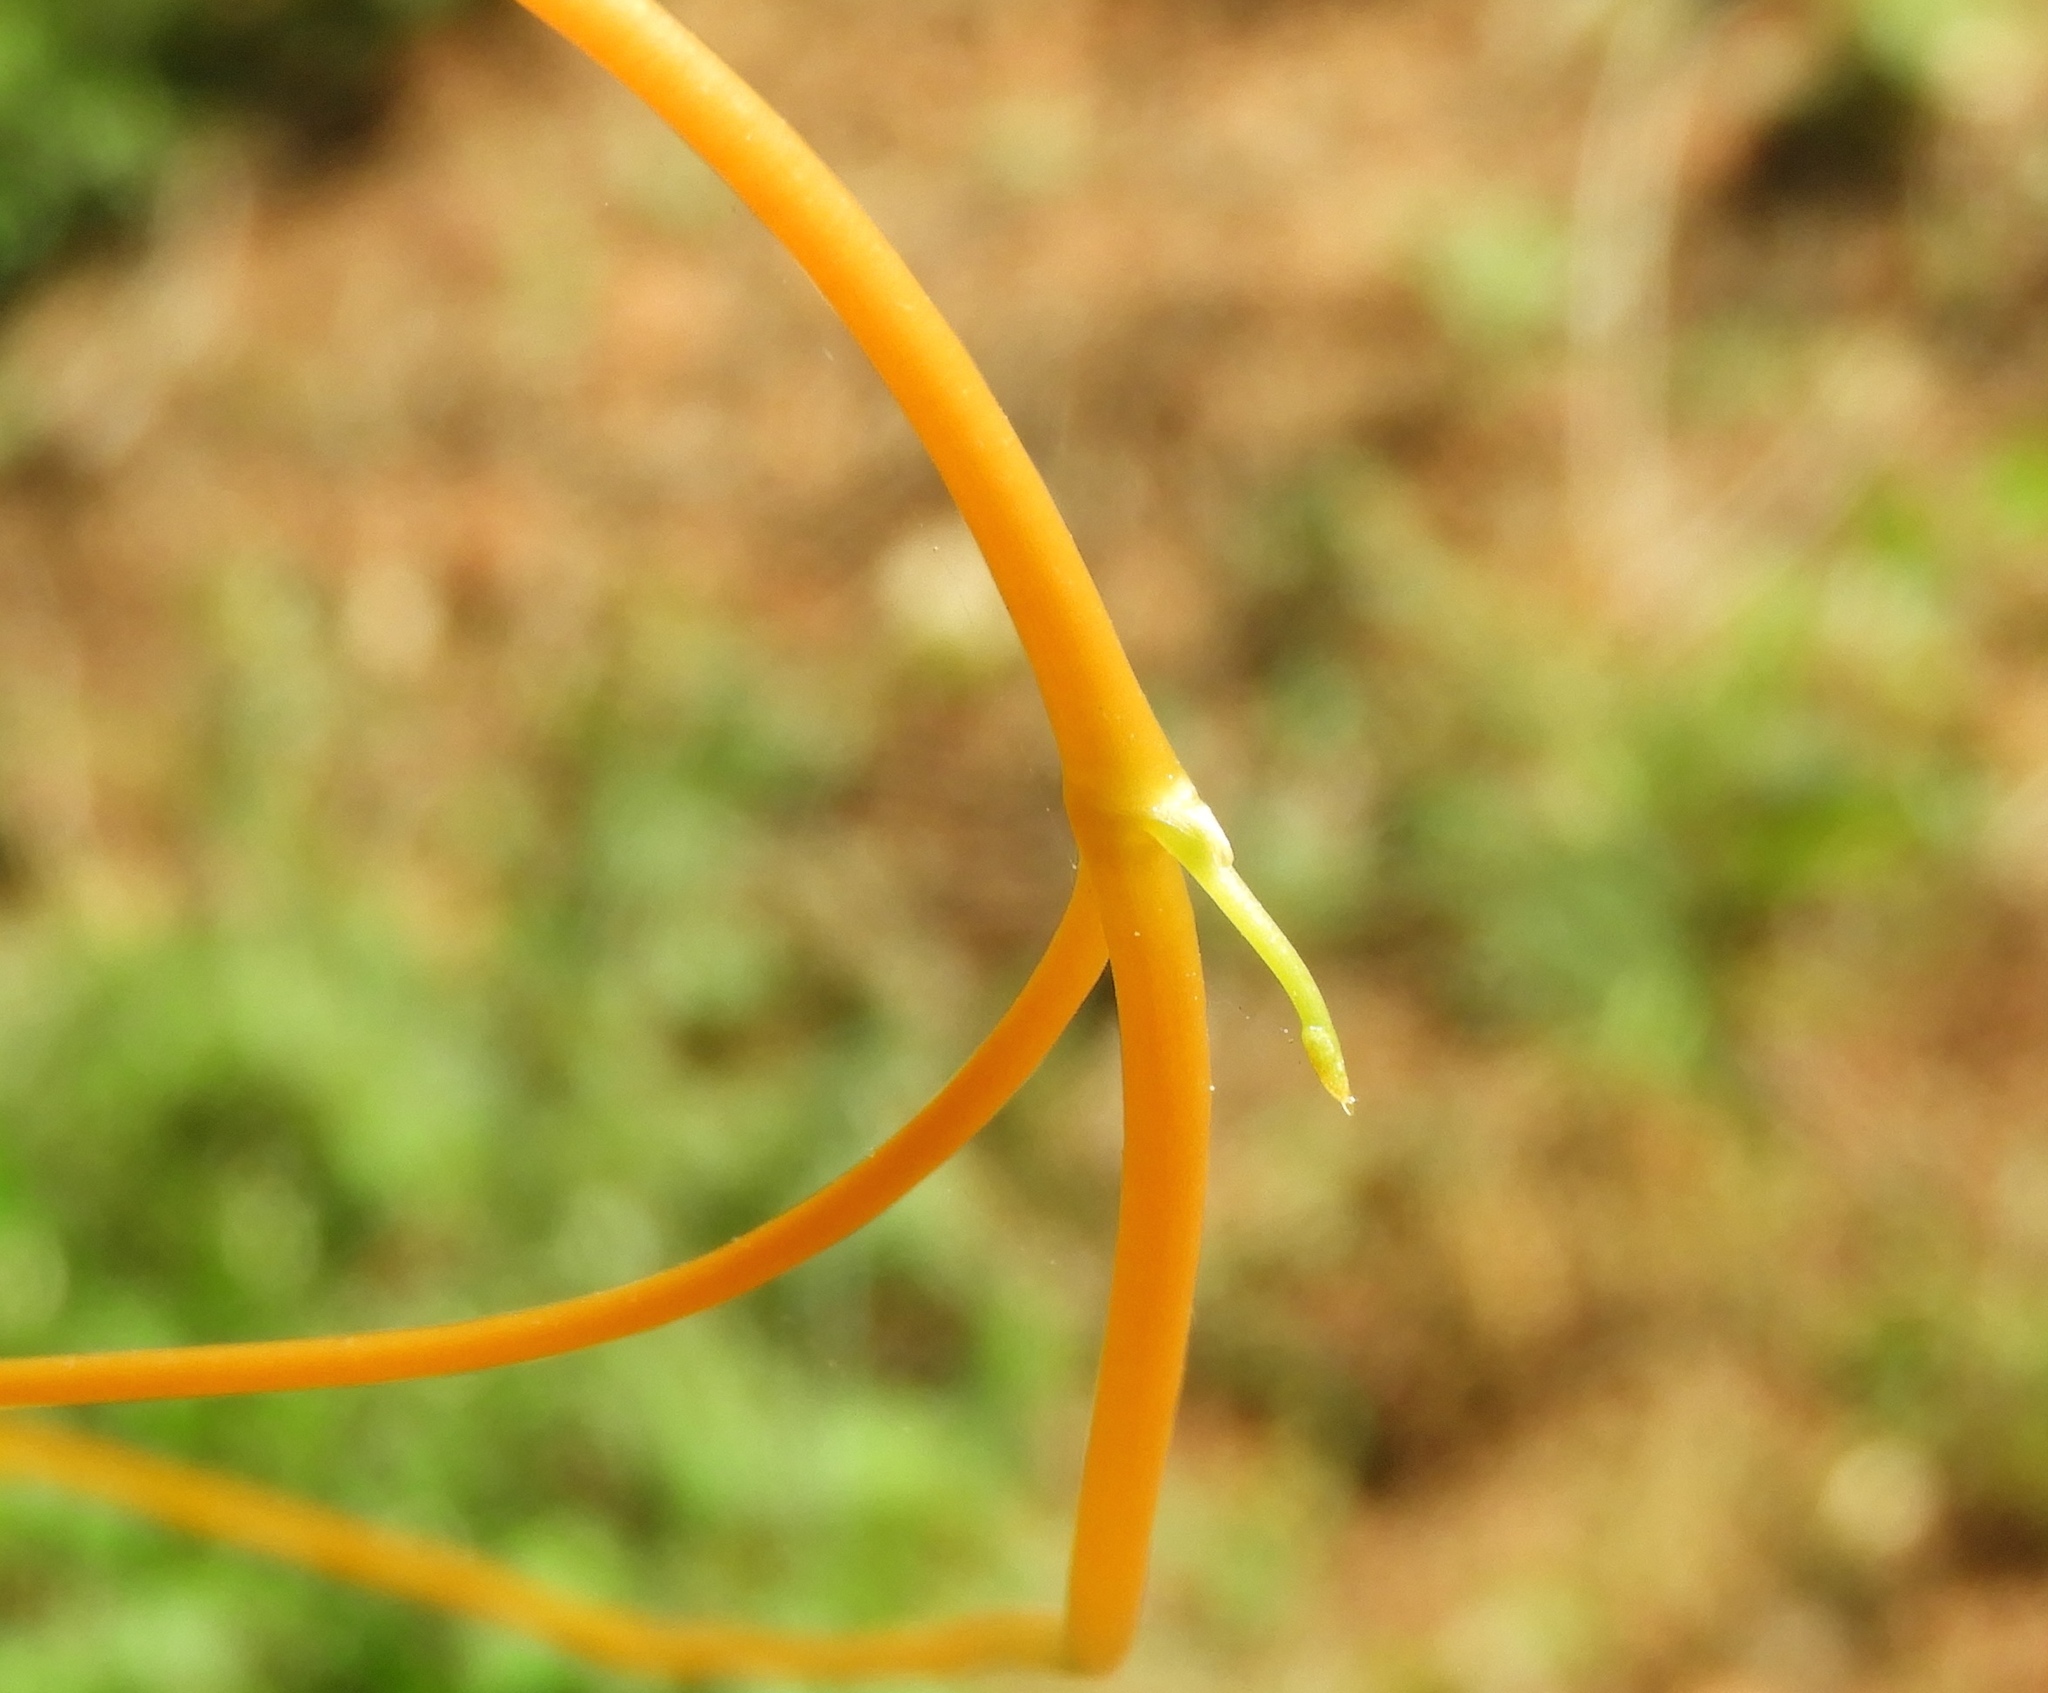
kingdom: Plantae
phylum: Tracheophyta
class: Magnoliopsida
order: Solanales
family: Convolvulaceae
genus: Cuscuta
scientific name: Cuscuta
